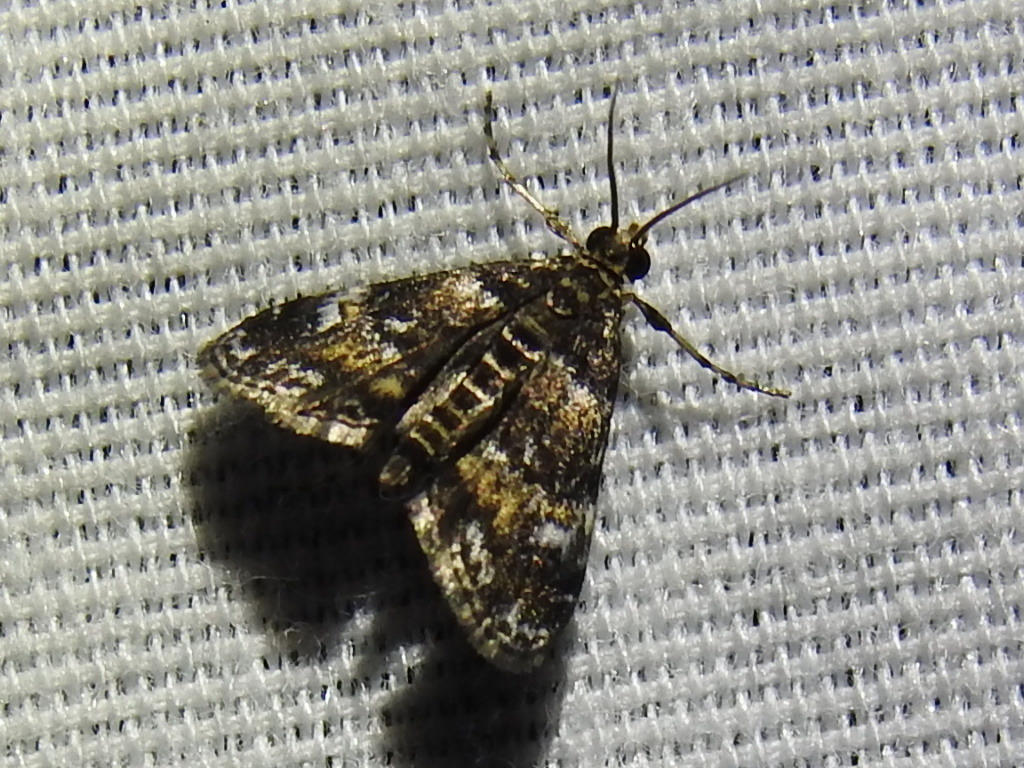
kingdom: Animalia
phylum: Arthropoda
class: Insecta
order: Lepidoptera
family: Crambidae
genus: Elophila
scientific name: Elophila obliteralis
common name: Waterlily leafcutter moth
